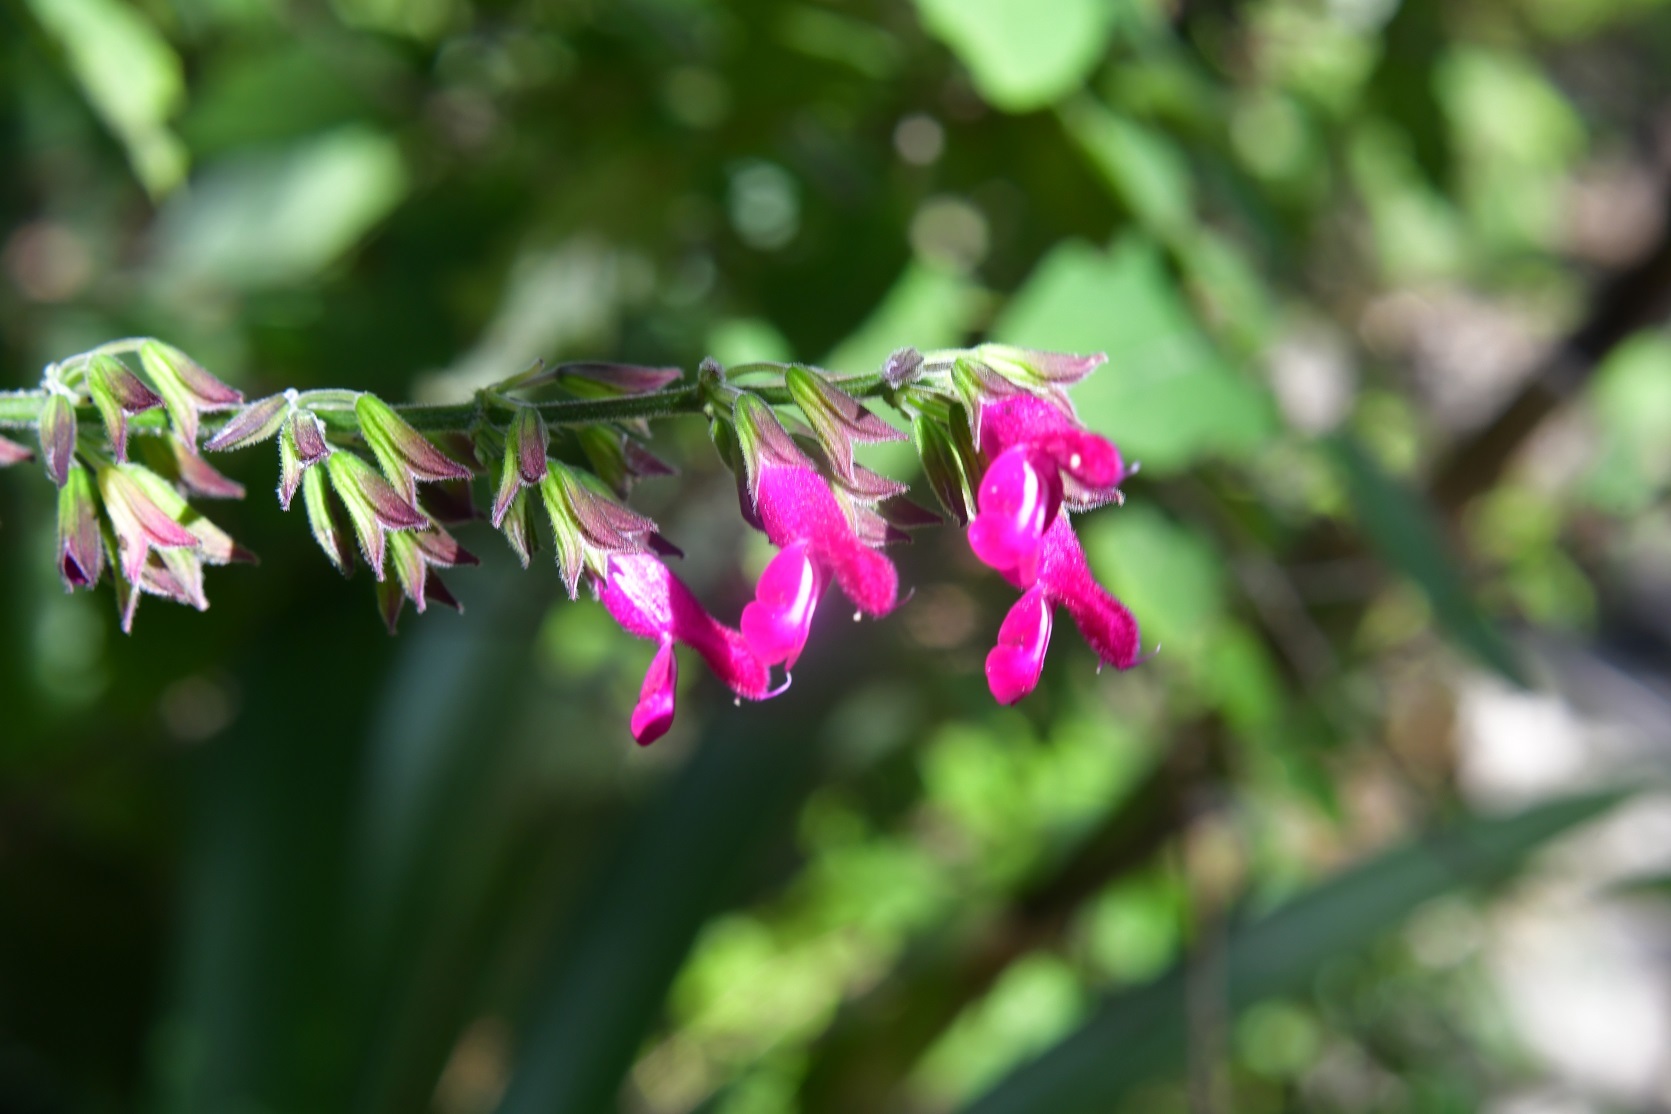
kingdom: Plantae
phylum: Tracheophyta
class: Magnoliopsida
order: Lamiales
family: Lamiaceae
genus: Salvia
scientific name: Salvia chiapensis
